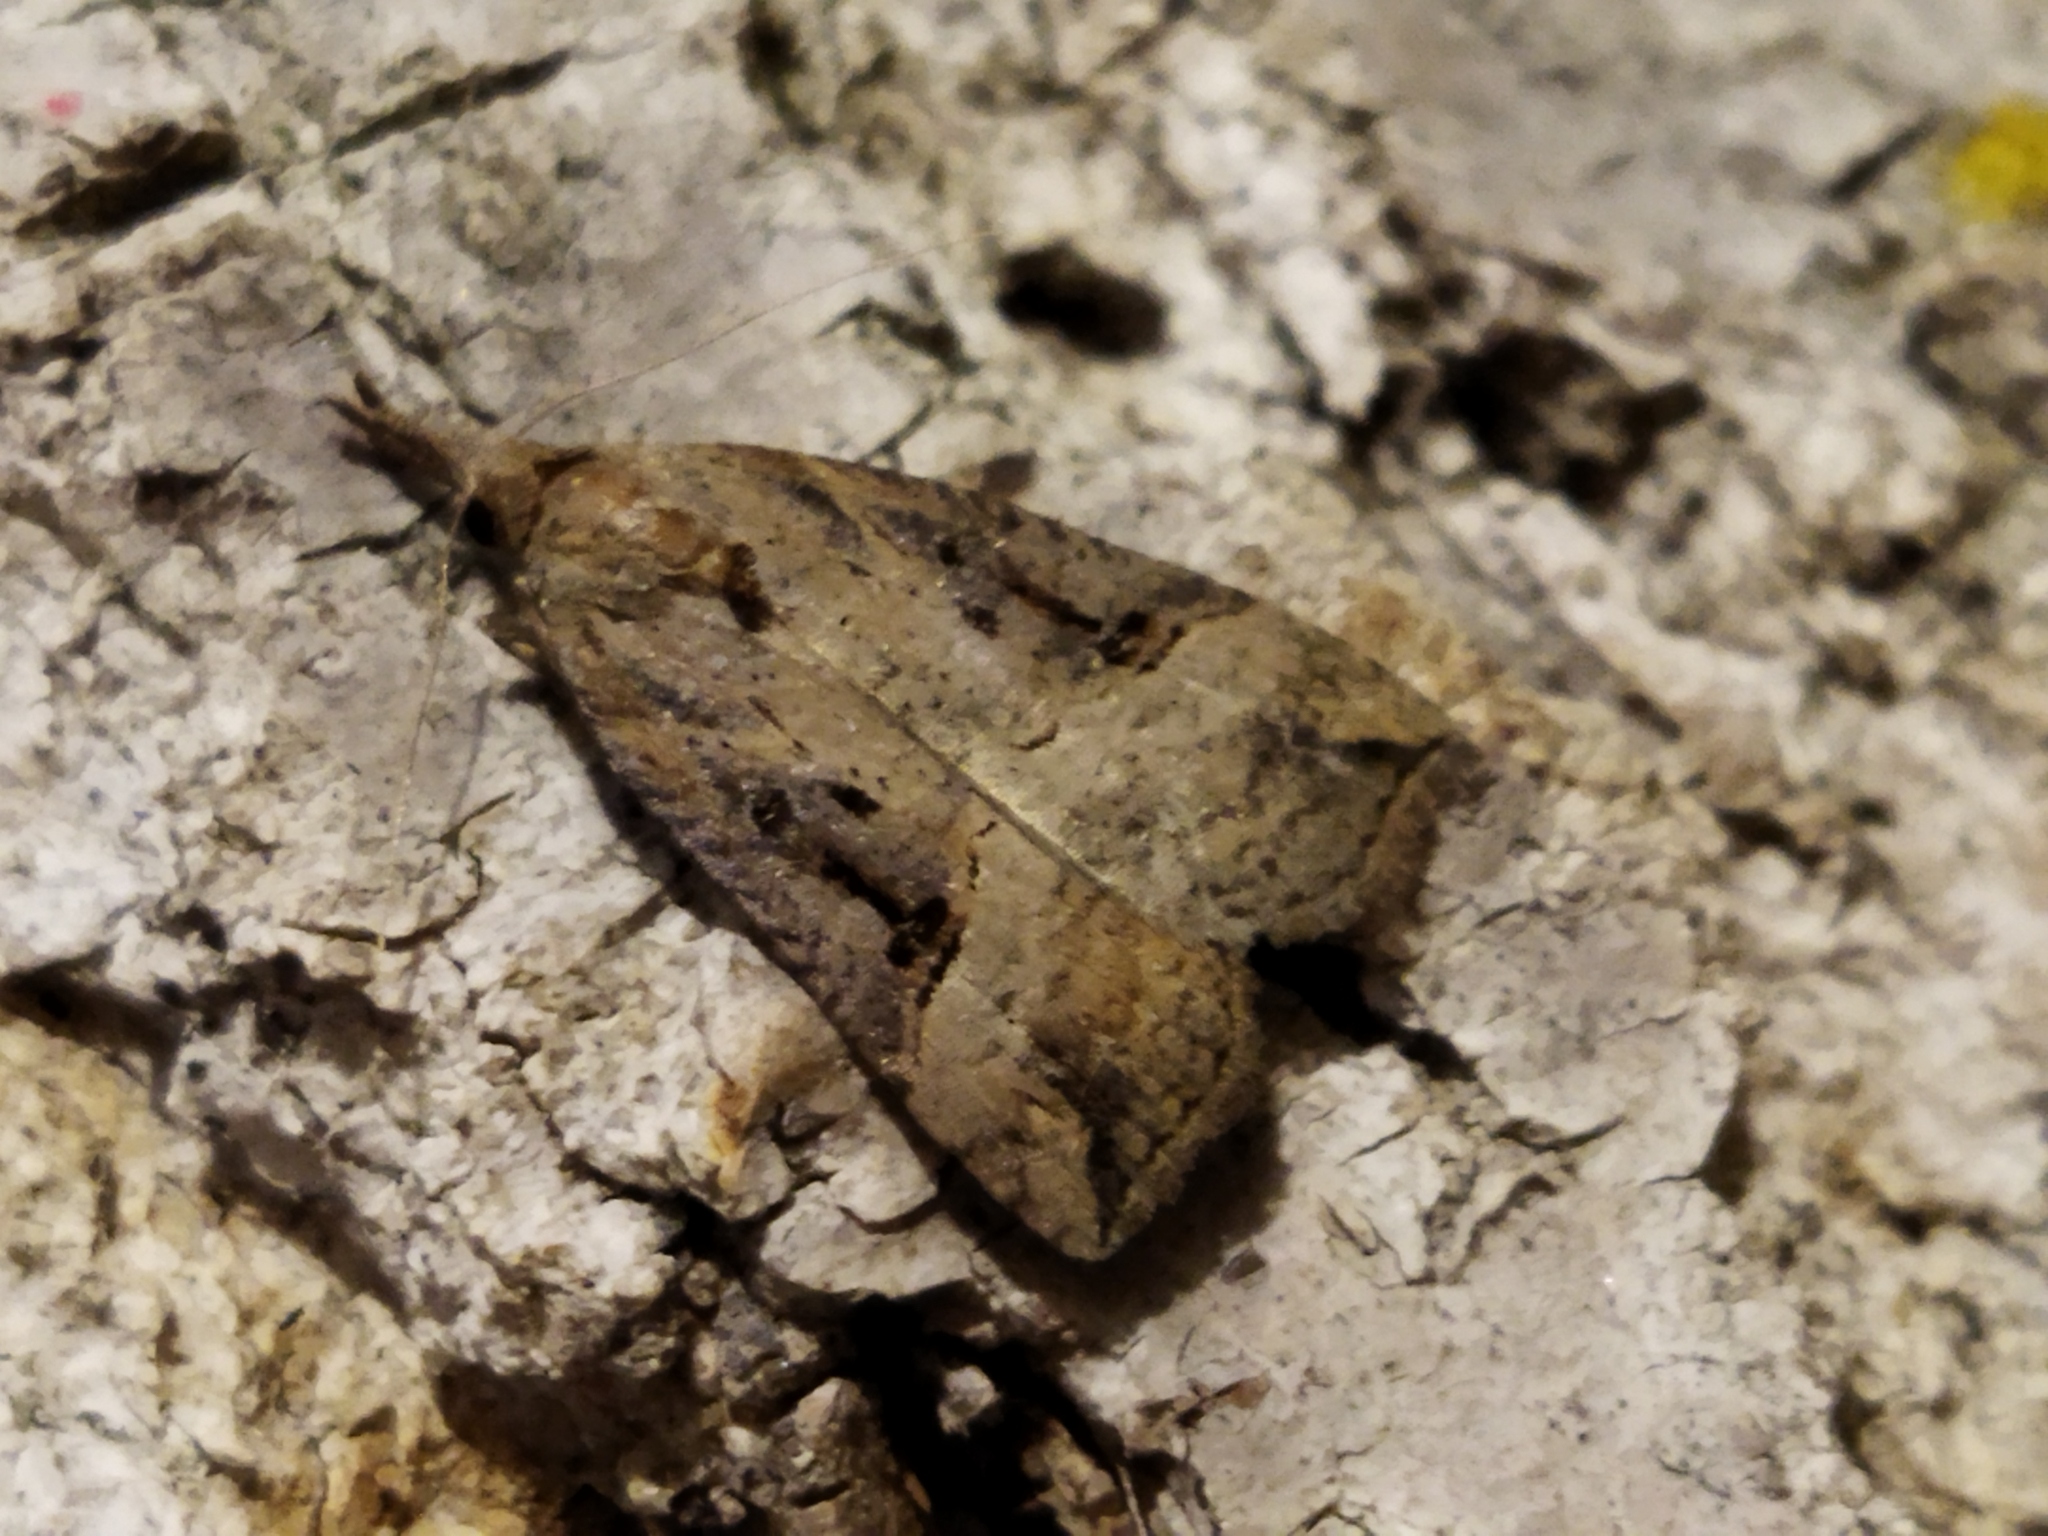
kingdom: Animalia
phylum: Arthropoda
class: Insecta
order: Lepidoptera
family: Erebidae
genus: Hypena
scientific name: Hypena rostralis
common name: Buttoned snout
